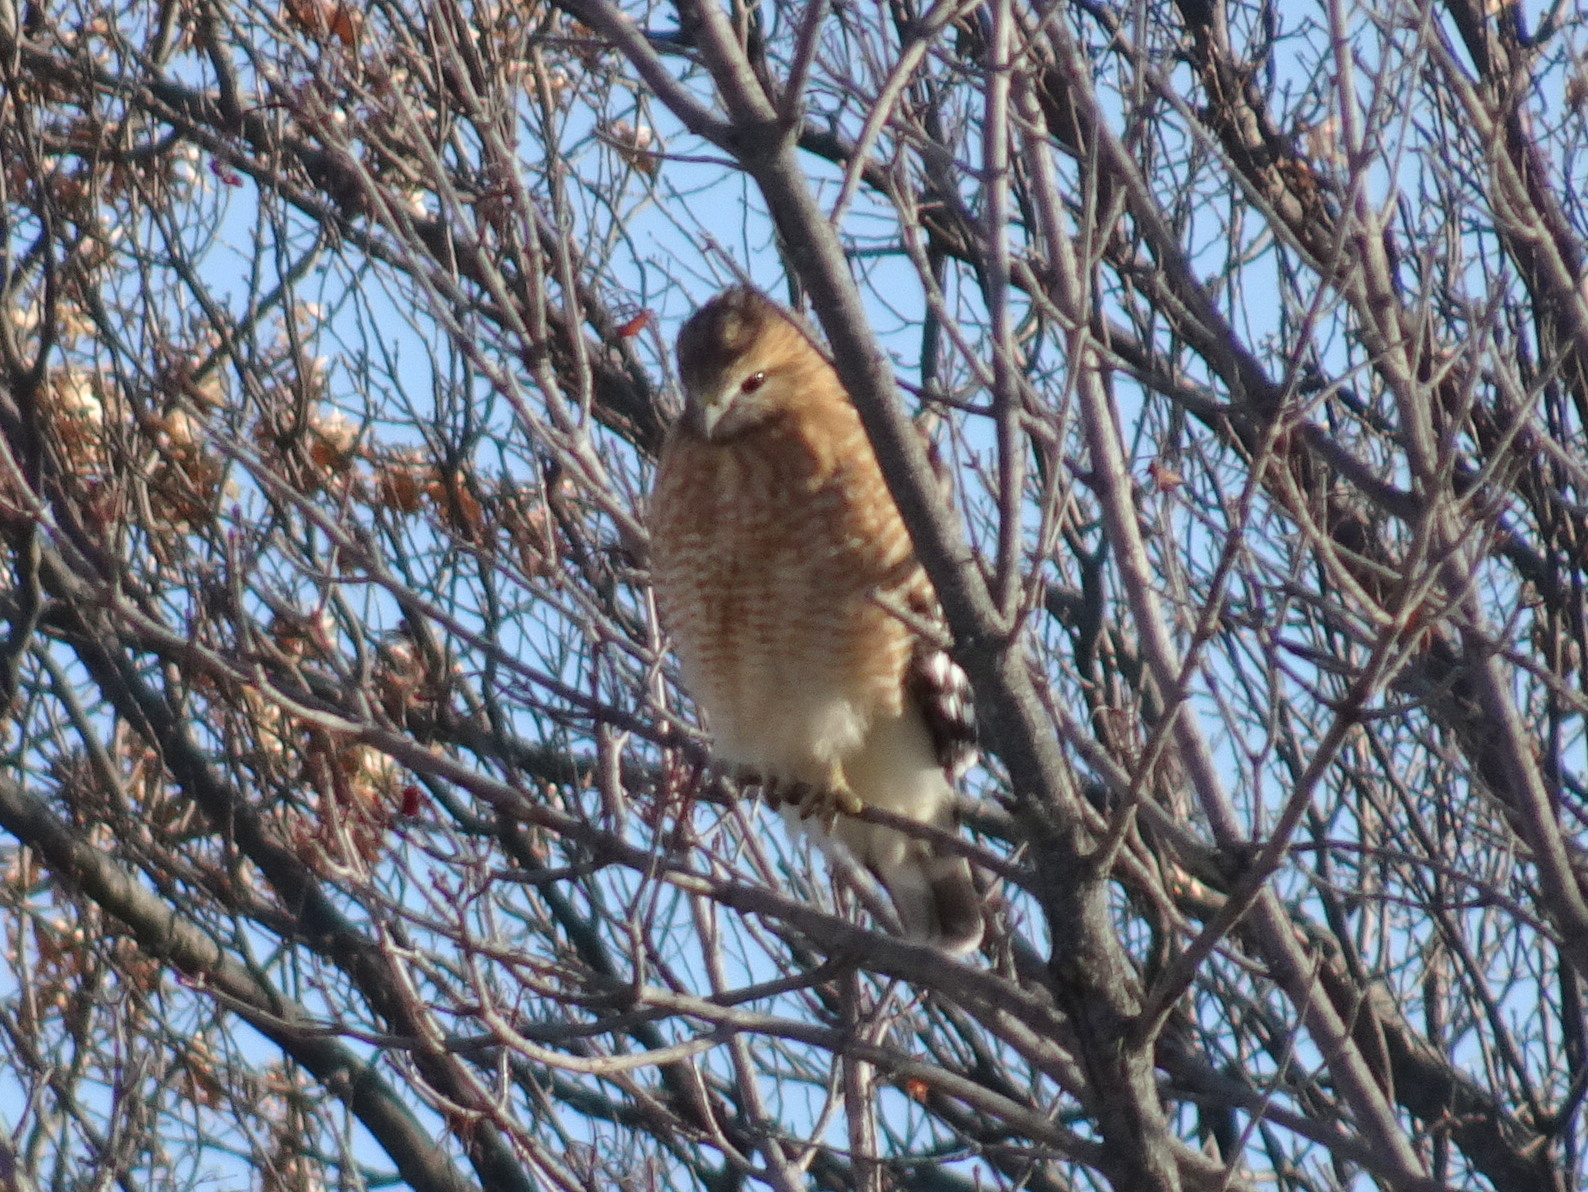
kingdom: Animalia
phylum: Chordata
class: Aves
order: Accipitriformes
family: Accipitridae
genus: Buteo
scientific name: Buteo lineatus
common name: Red-shouldered hawk
